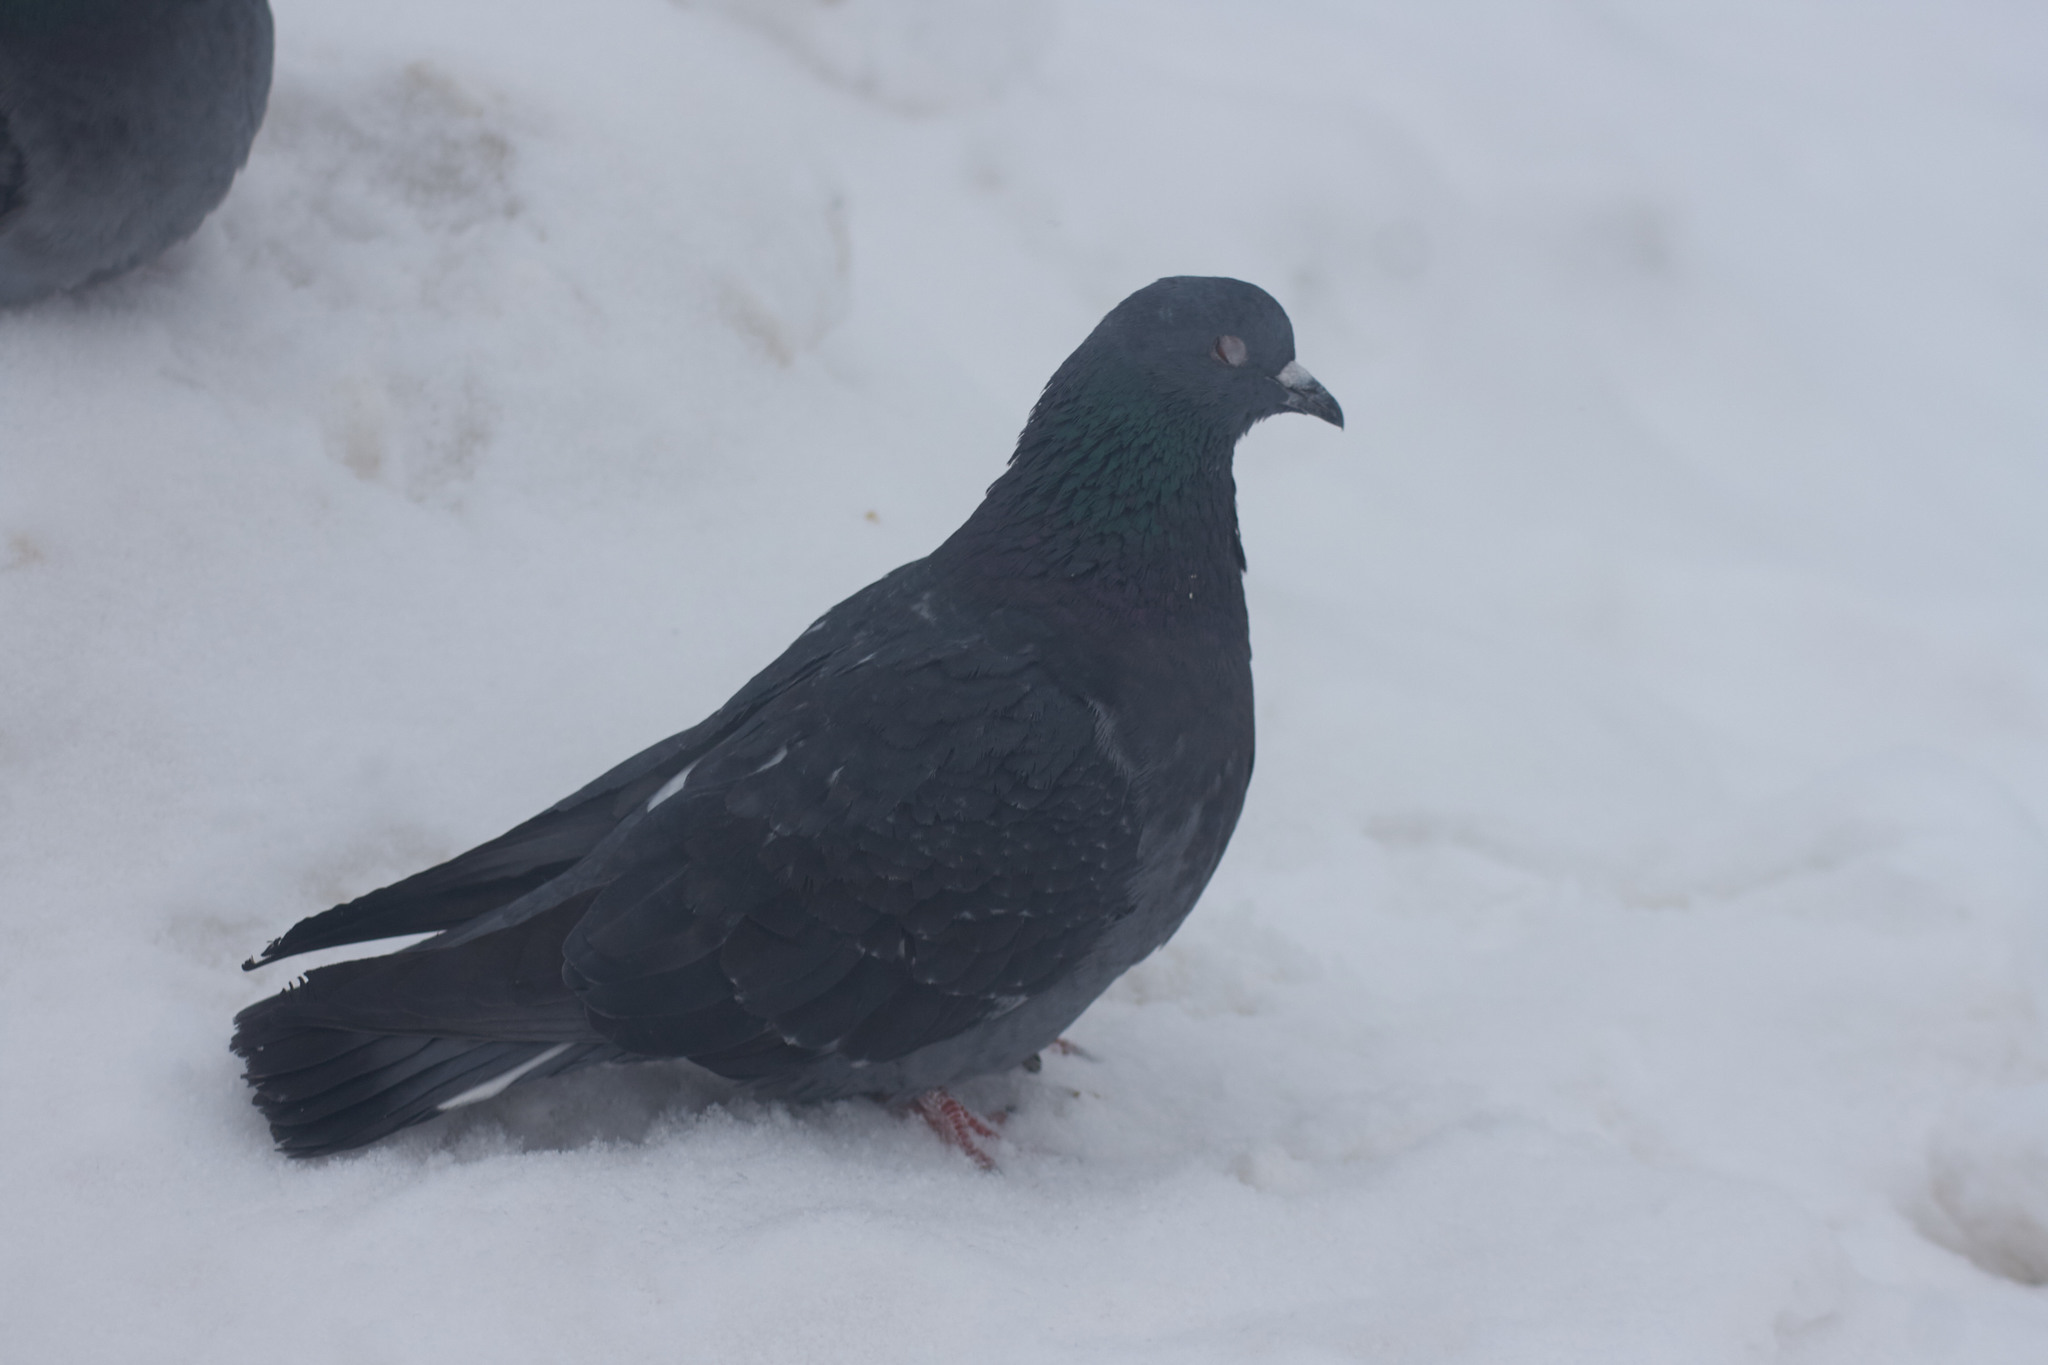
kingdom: Animalia
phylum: Chordata
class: Aves
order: Columbiformes
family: Columbidae
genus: Columba
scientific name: Columba livia
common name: Rock pigeon
